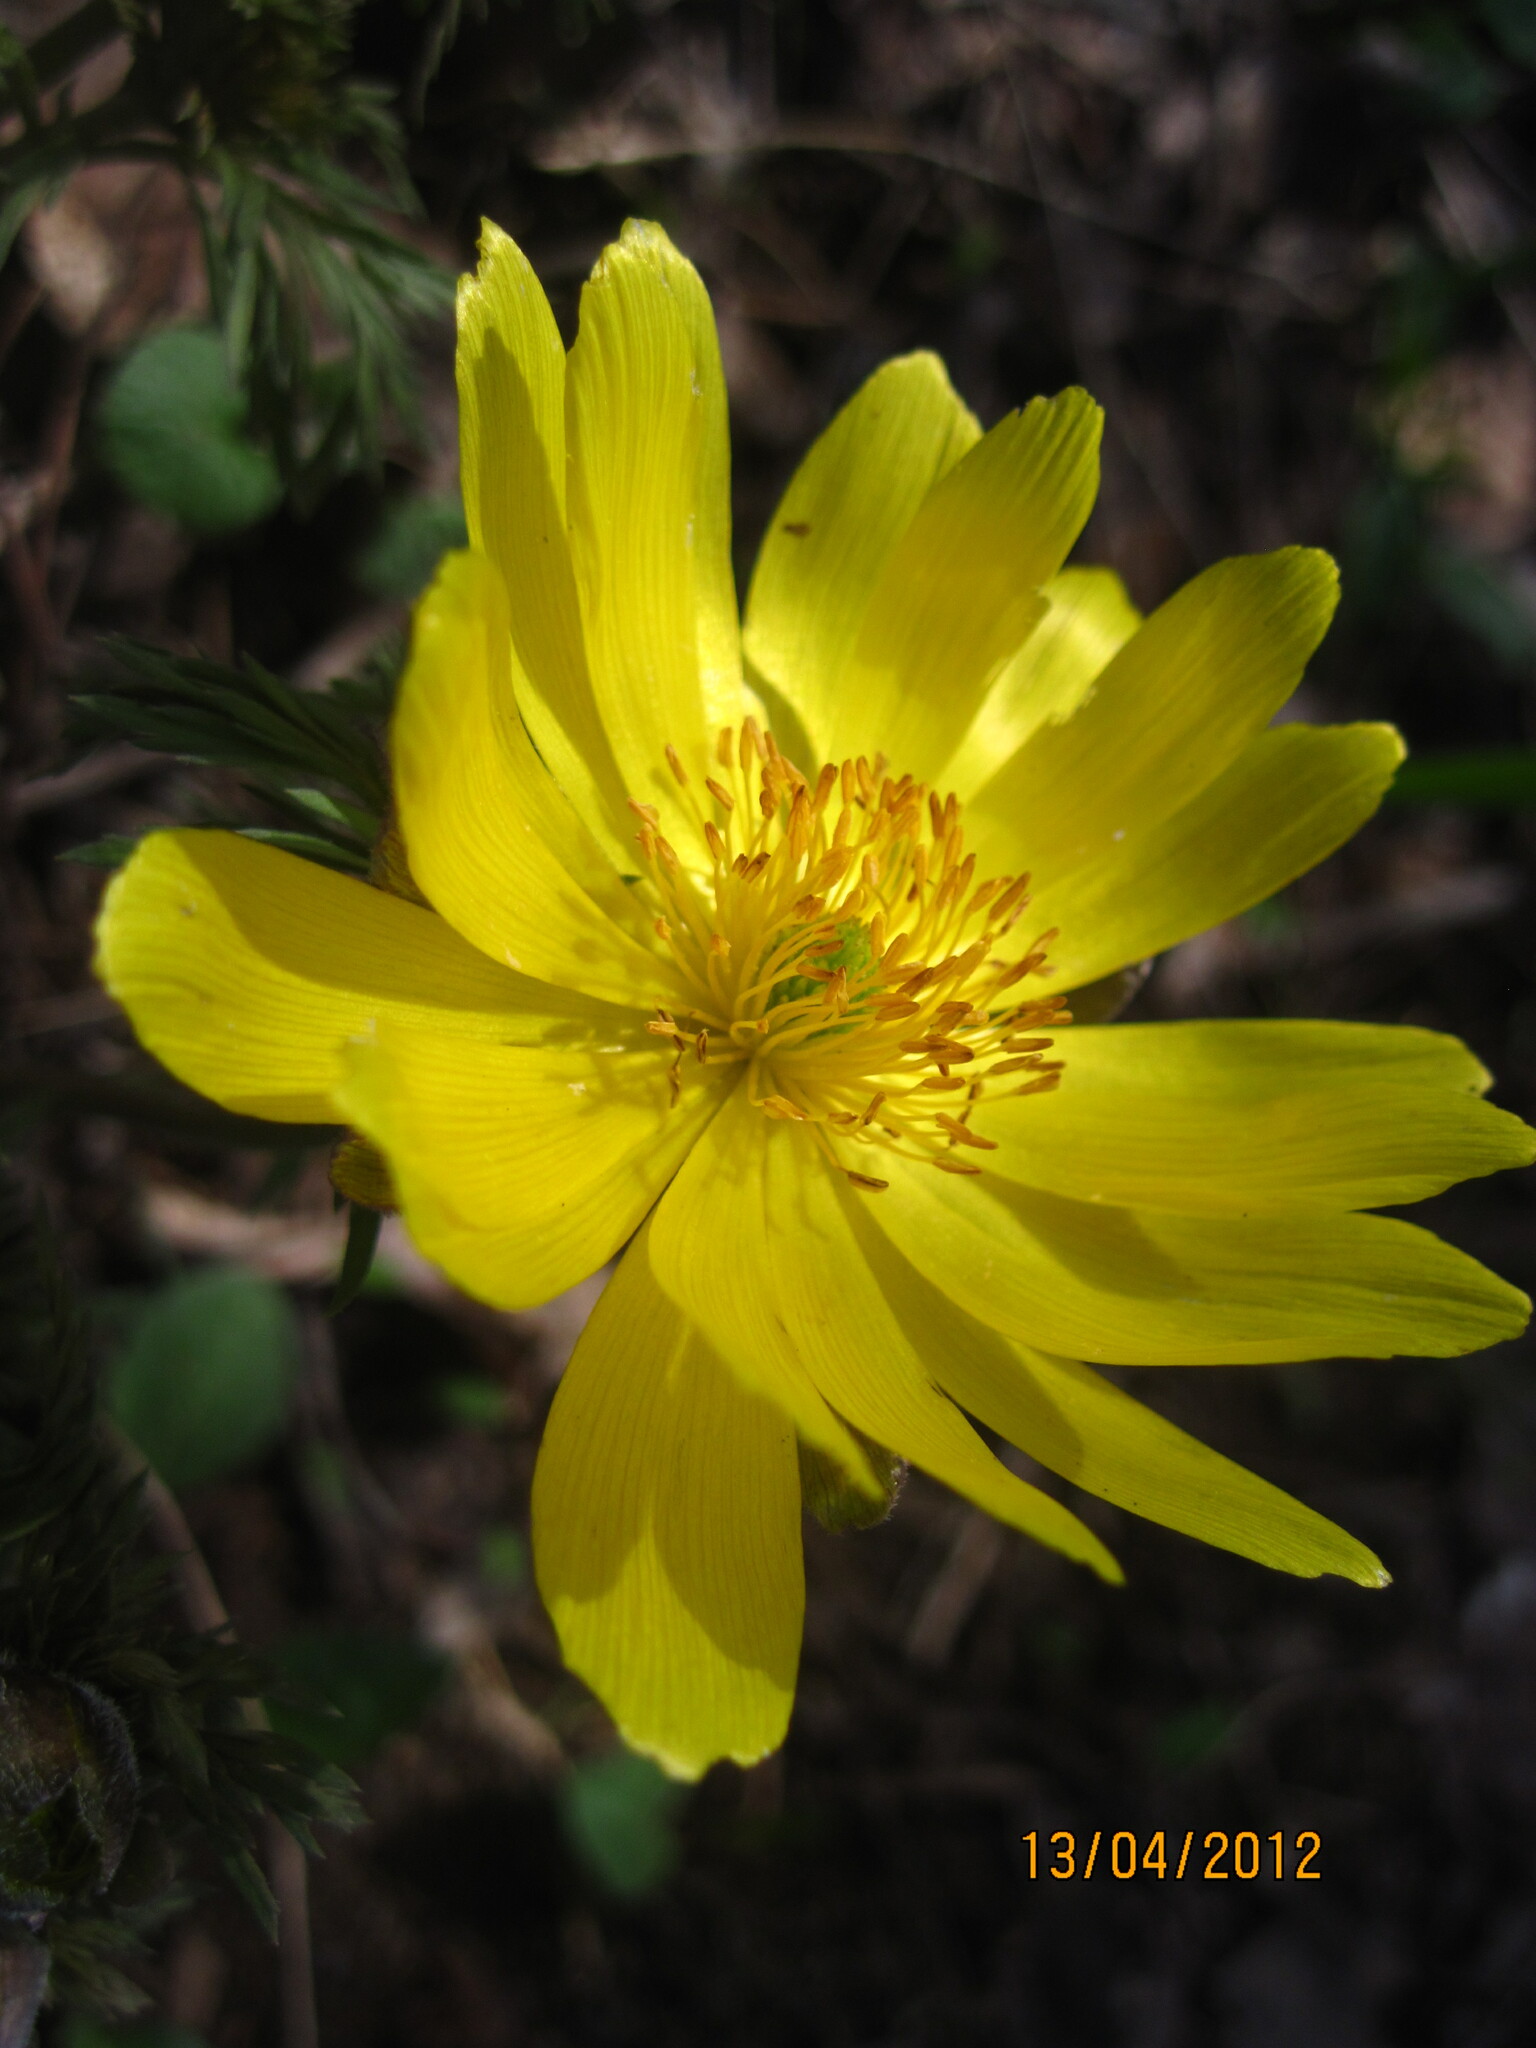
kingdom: Plantae
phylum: Tracheophyta
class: Magnoliopsida
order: Ranunculales
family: Ranunculaceae
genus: Adonis
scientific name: Adonis volgensis
